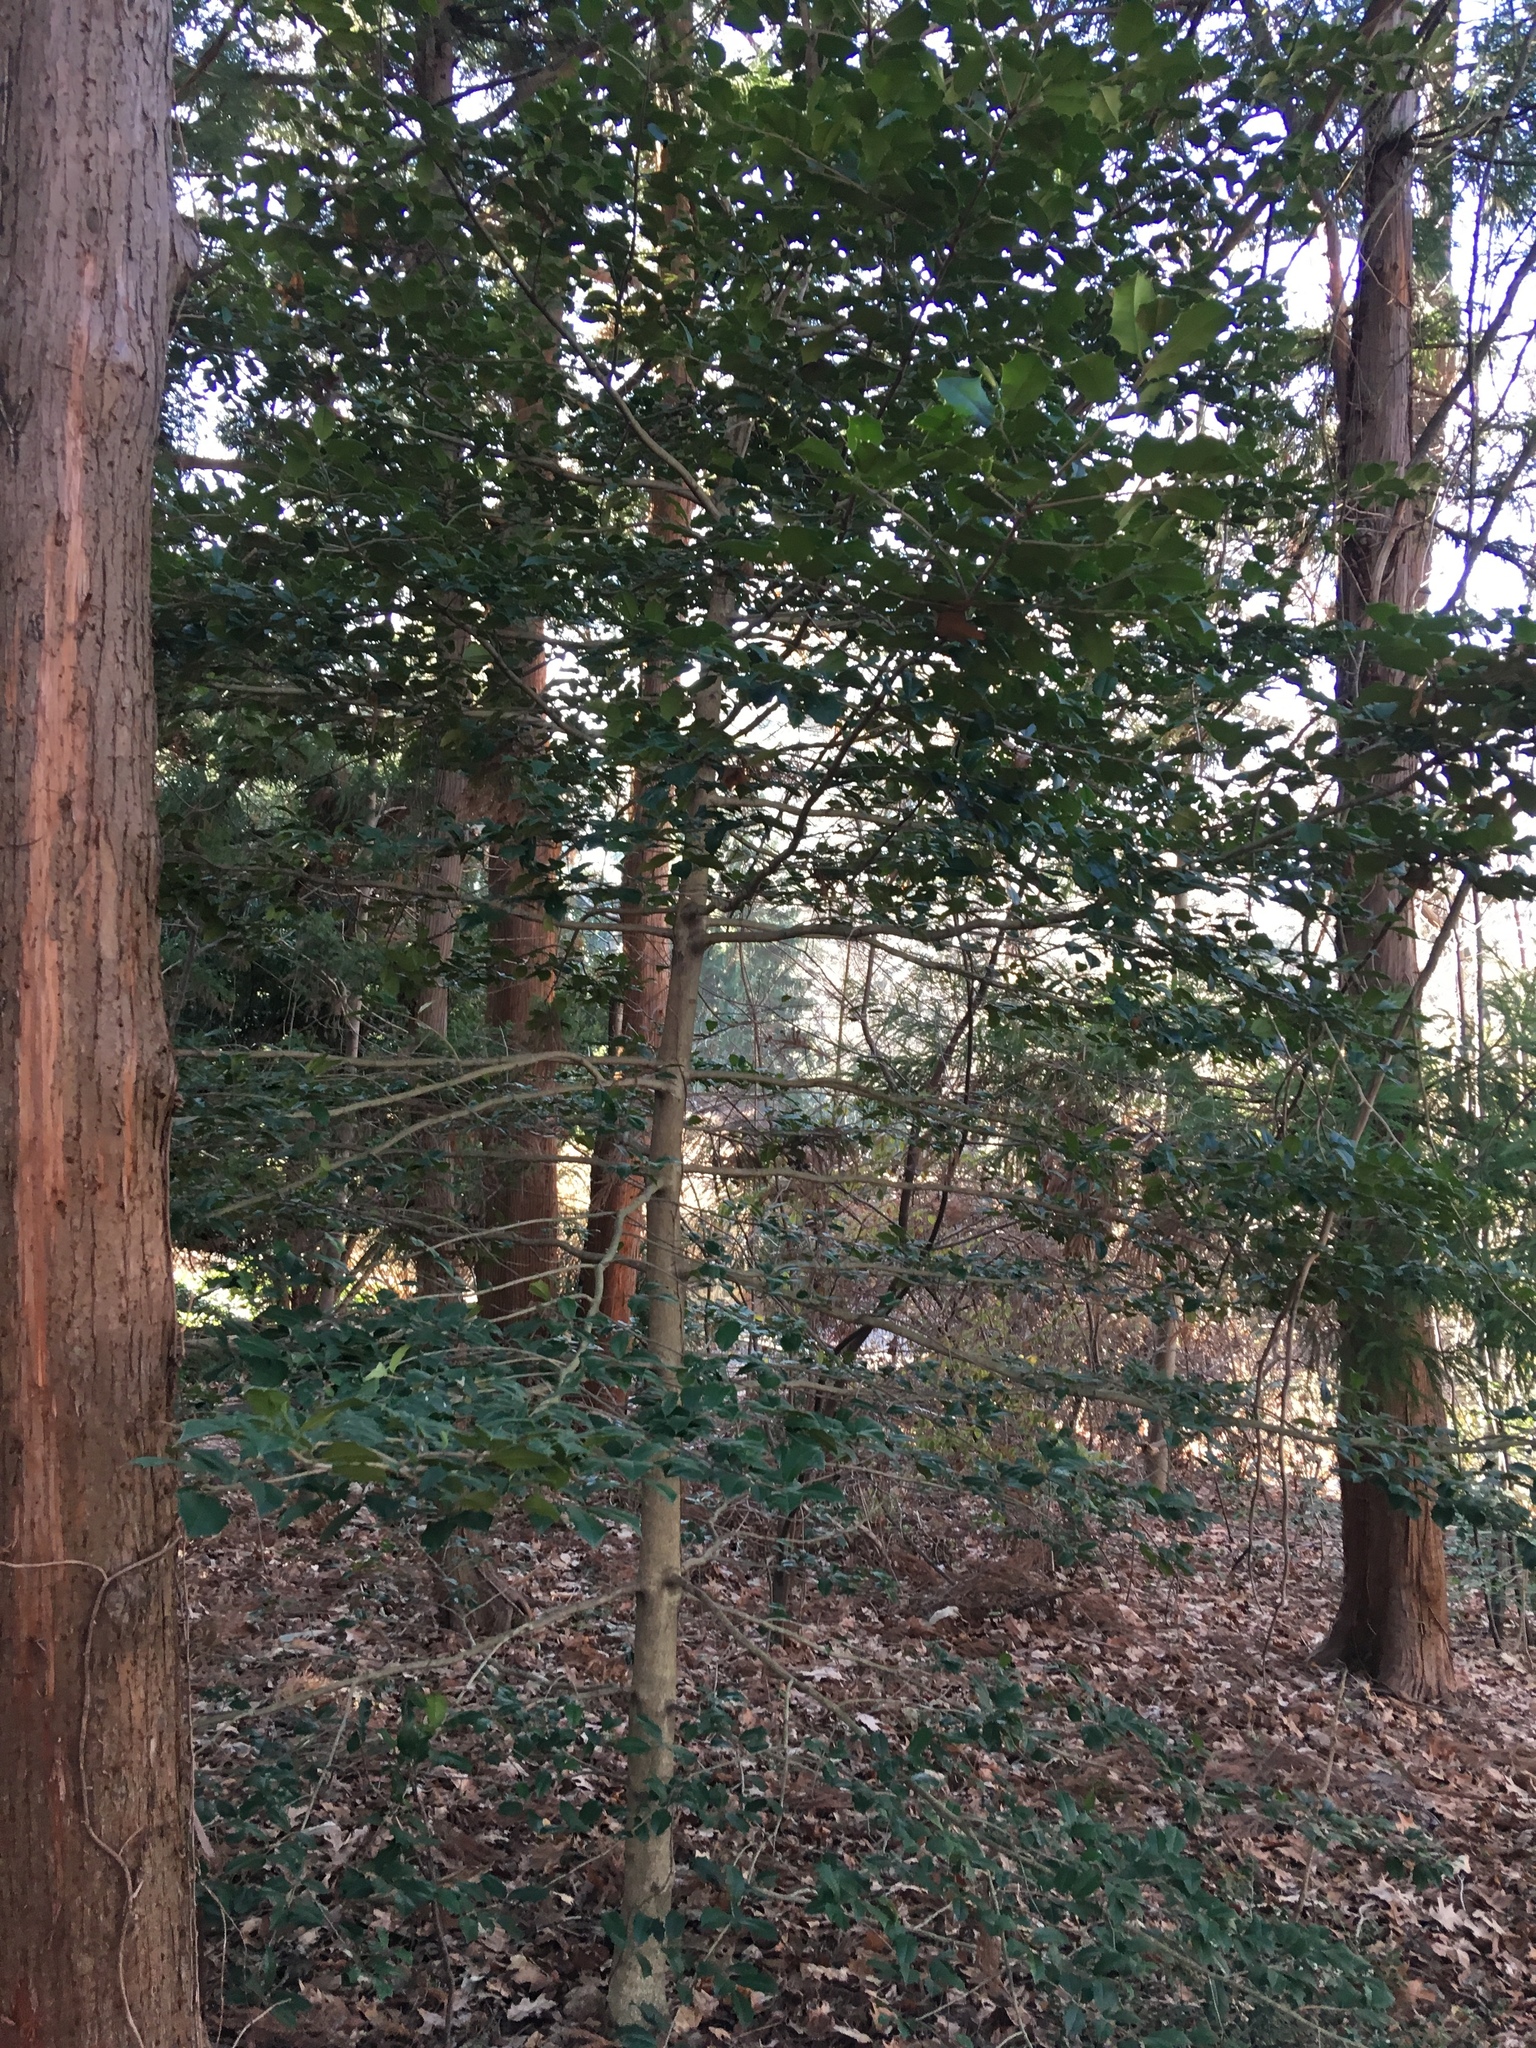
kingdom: Plantae
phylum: Tracheophyta
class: Magnoliopsida
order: Aquifoliales
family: Aquifoliaceae
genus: Ilex
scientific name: Ilex opaca
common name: American holly
